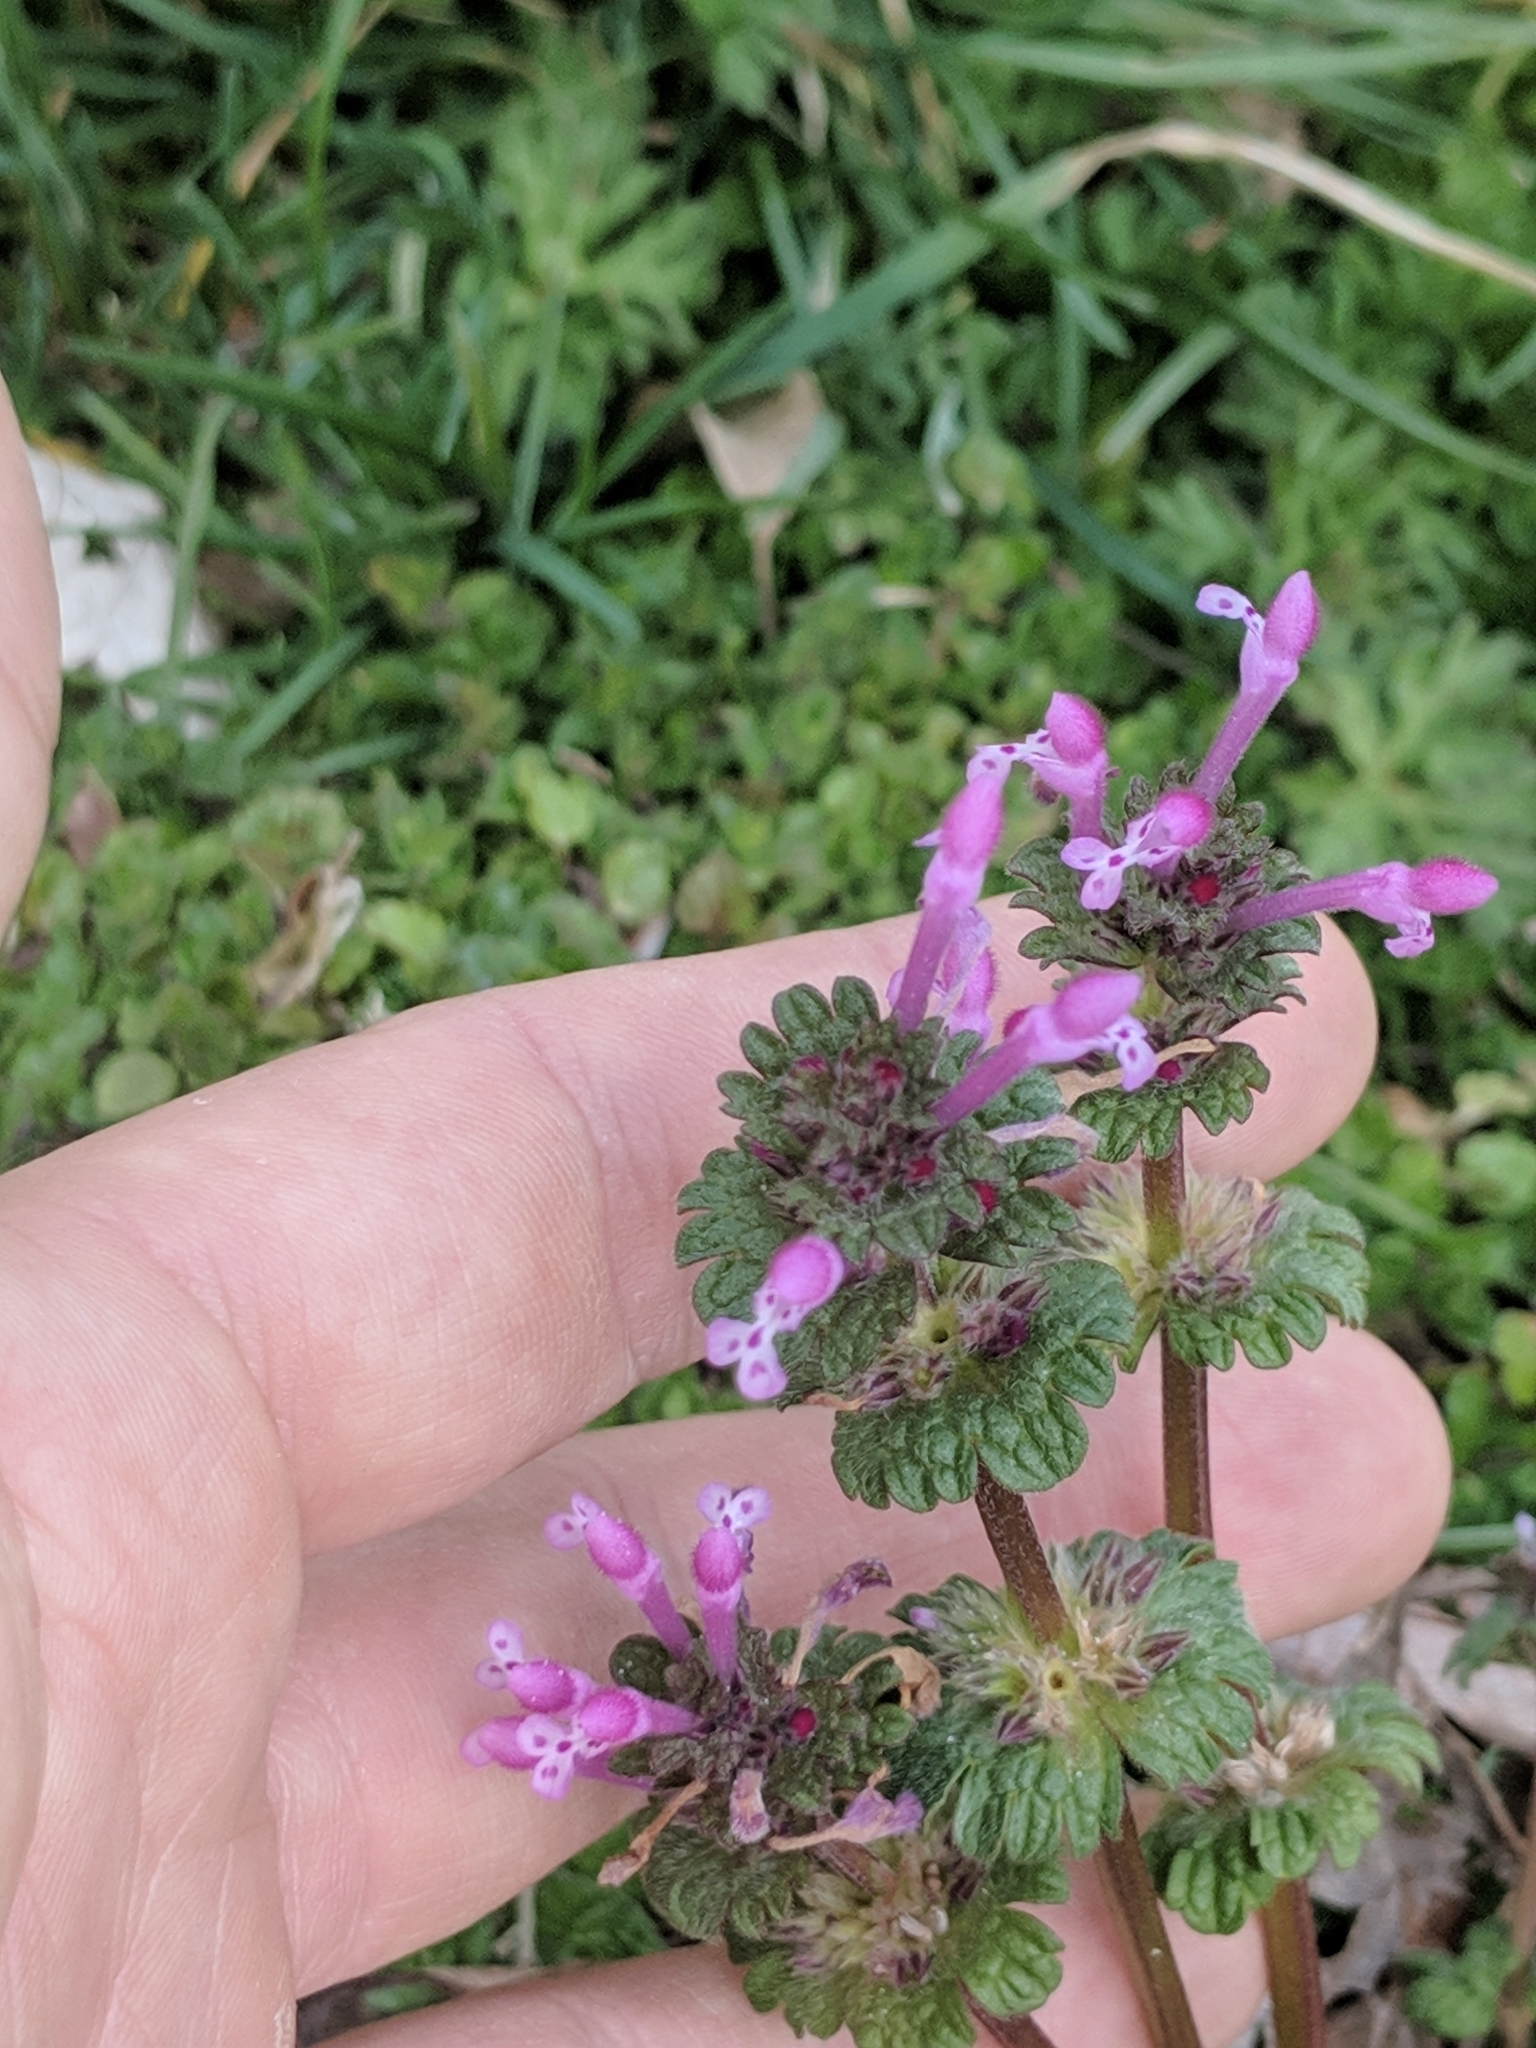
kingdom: Plantae
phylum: Tracheophyta
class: Magnoliopsida
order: Lamiales
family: Lamiaceae
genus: Lamium
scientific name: Lamium amplexicaule
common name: Henbit dead-nettle
